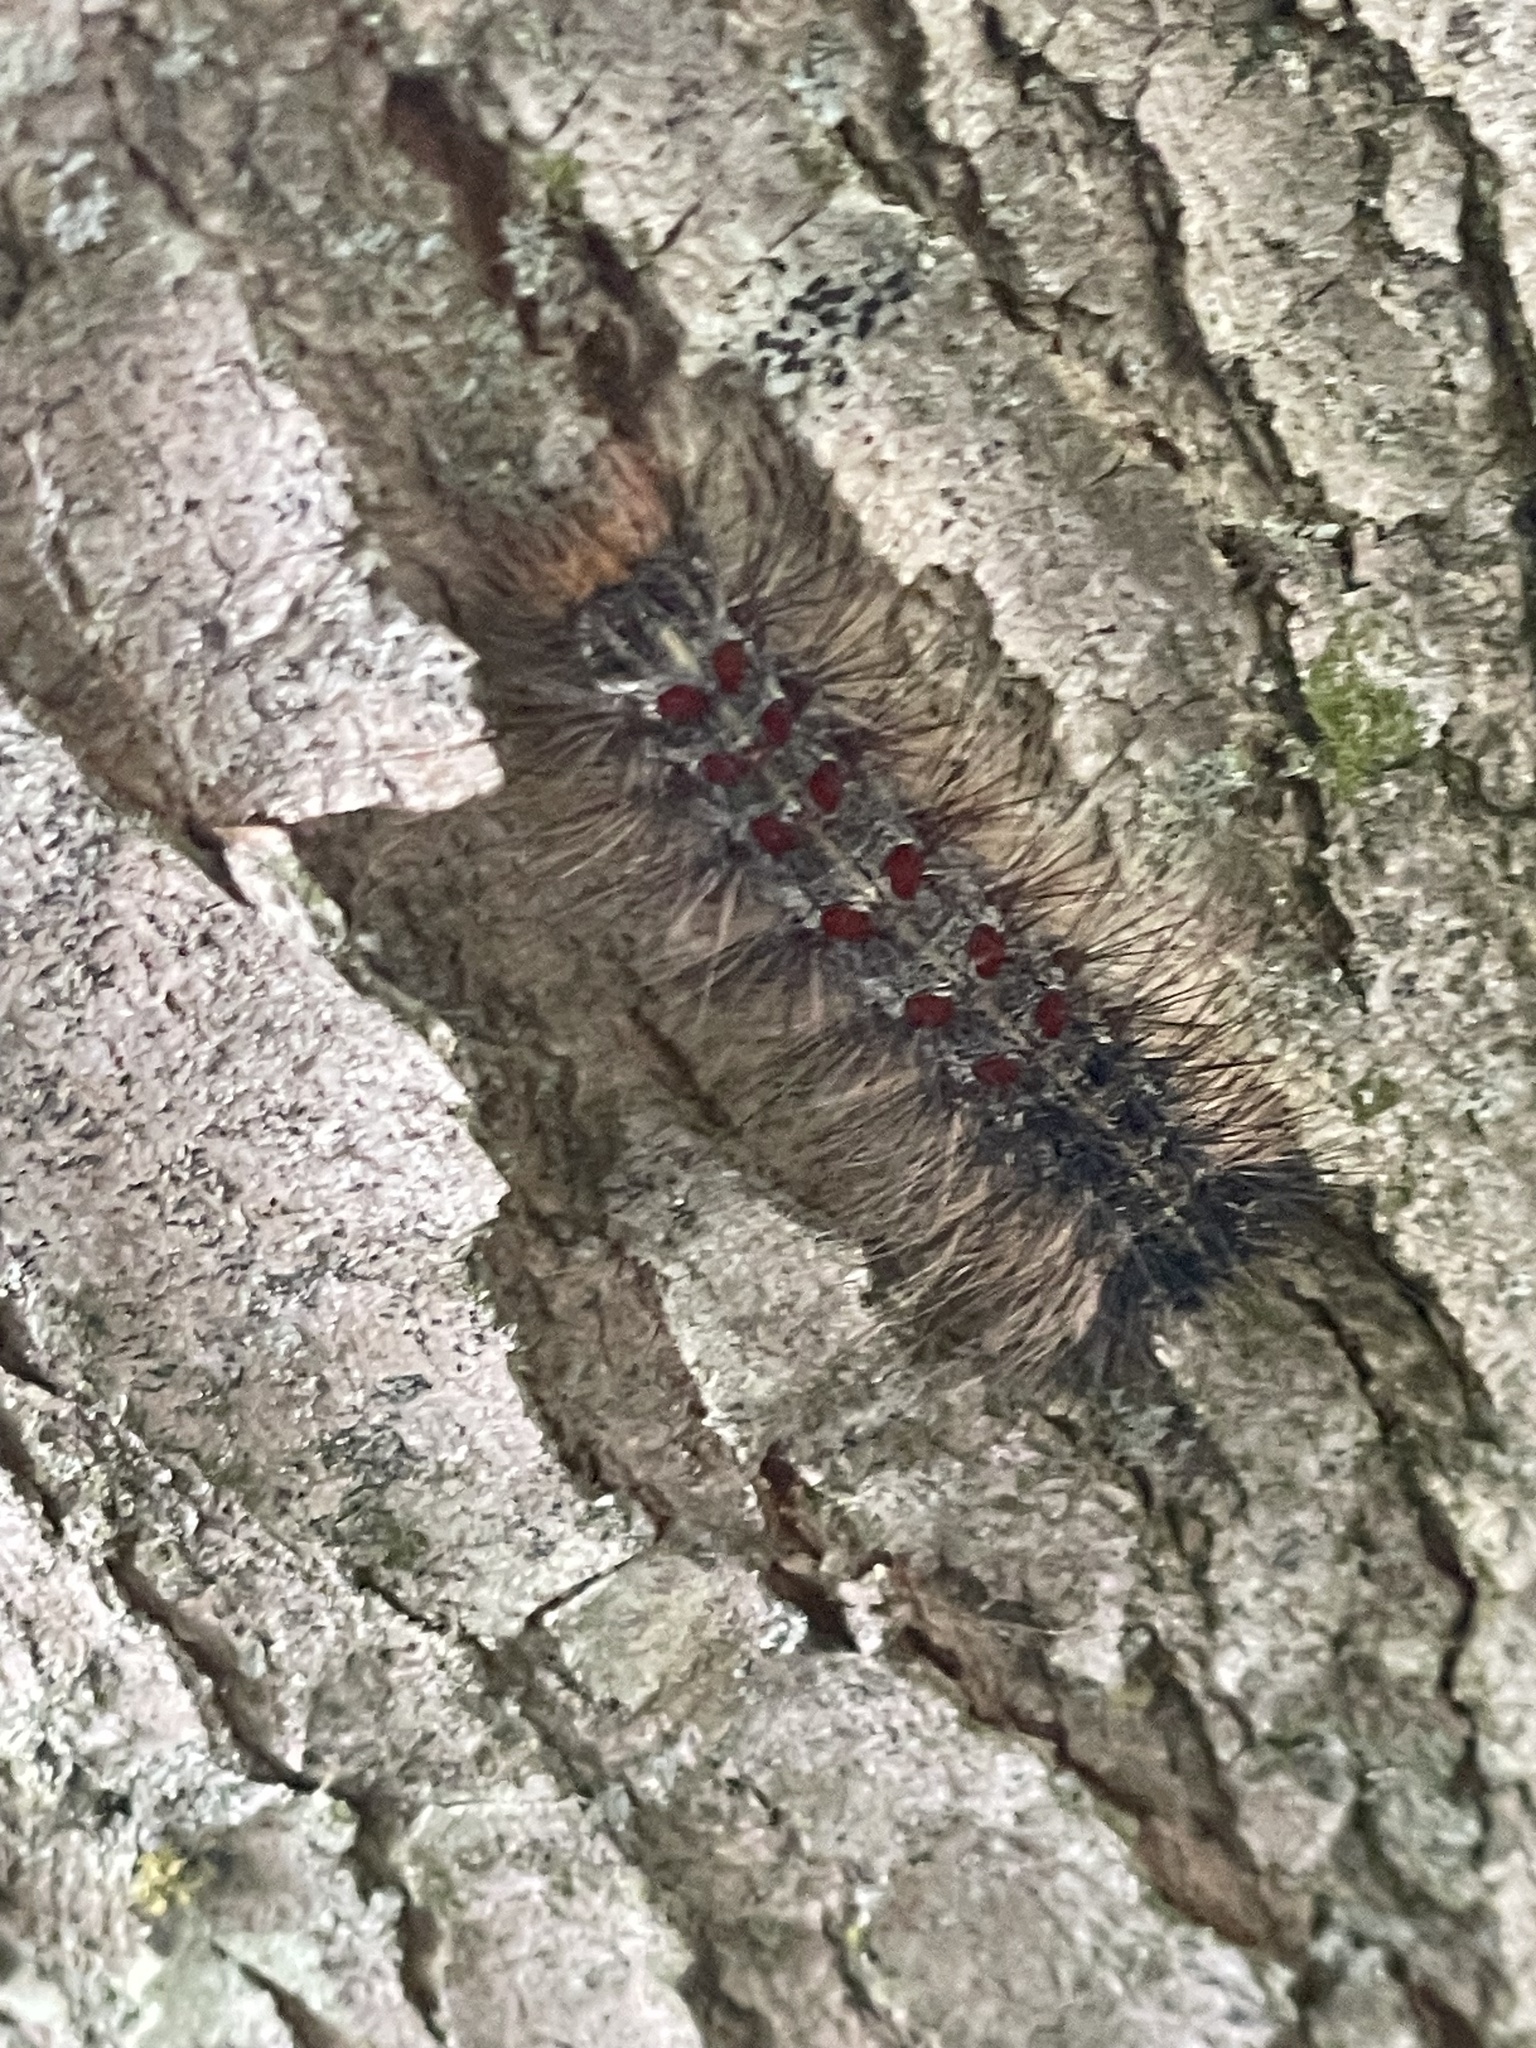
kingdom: Animalia
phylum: Arthropoda
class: Insecta
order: Lepidoptera
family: Erebidae
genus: Lymantria
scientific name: Lymantria dispar
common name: Gypsy moth
